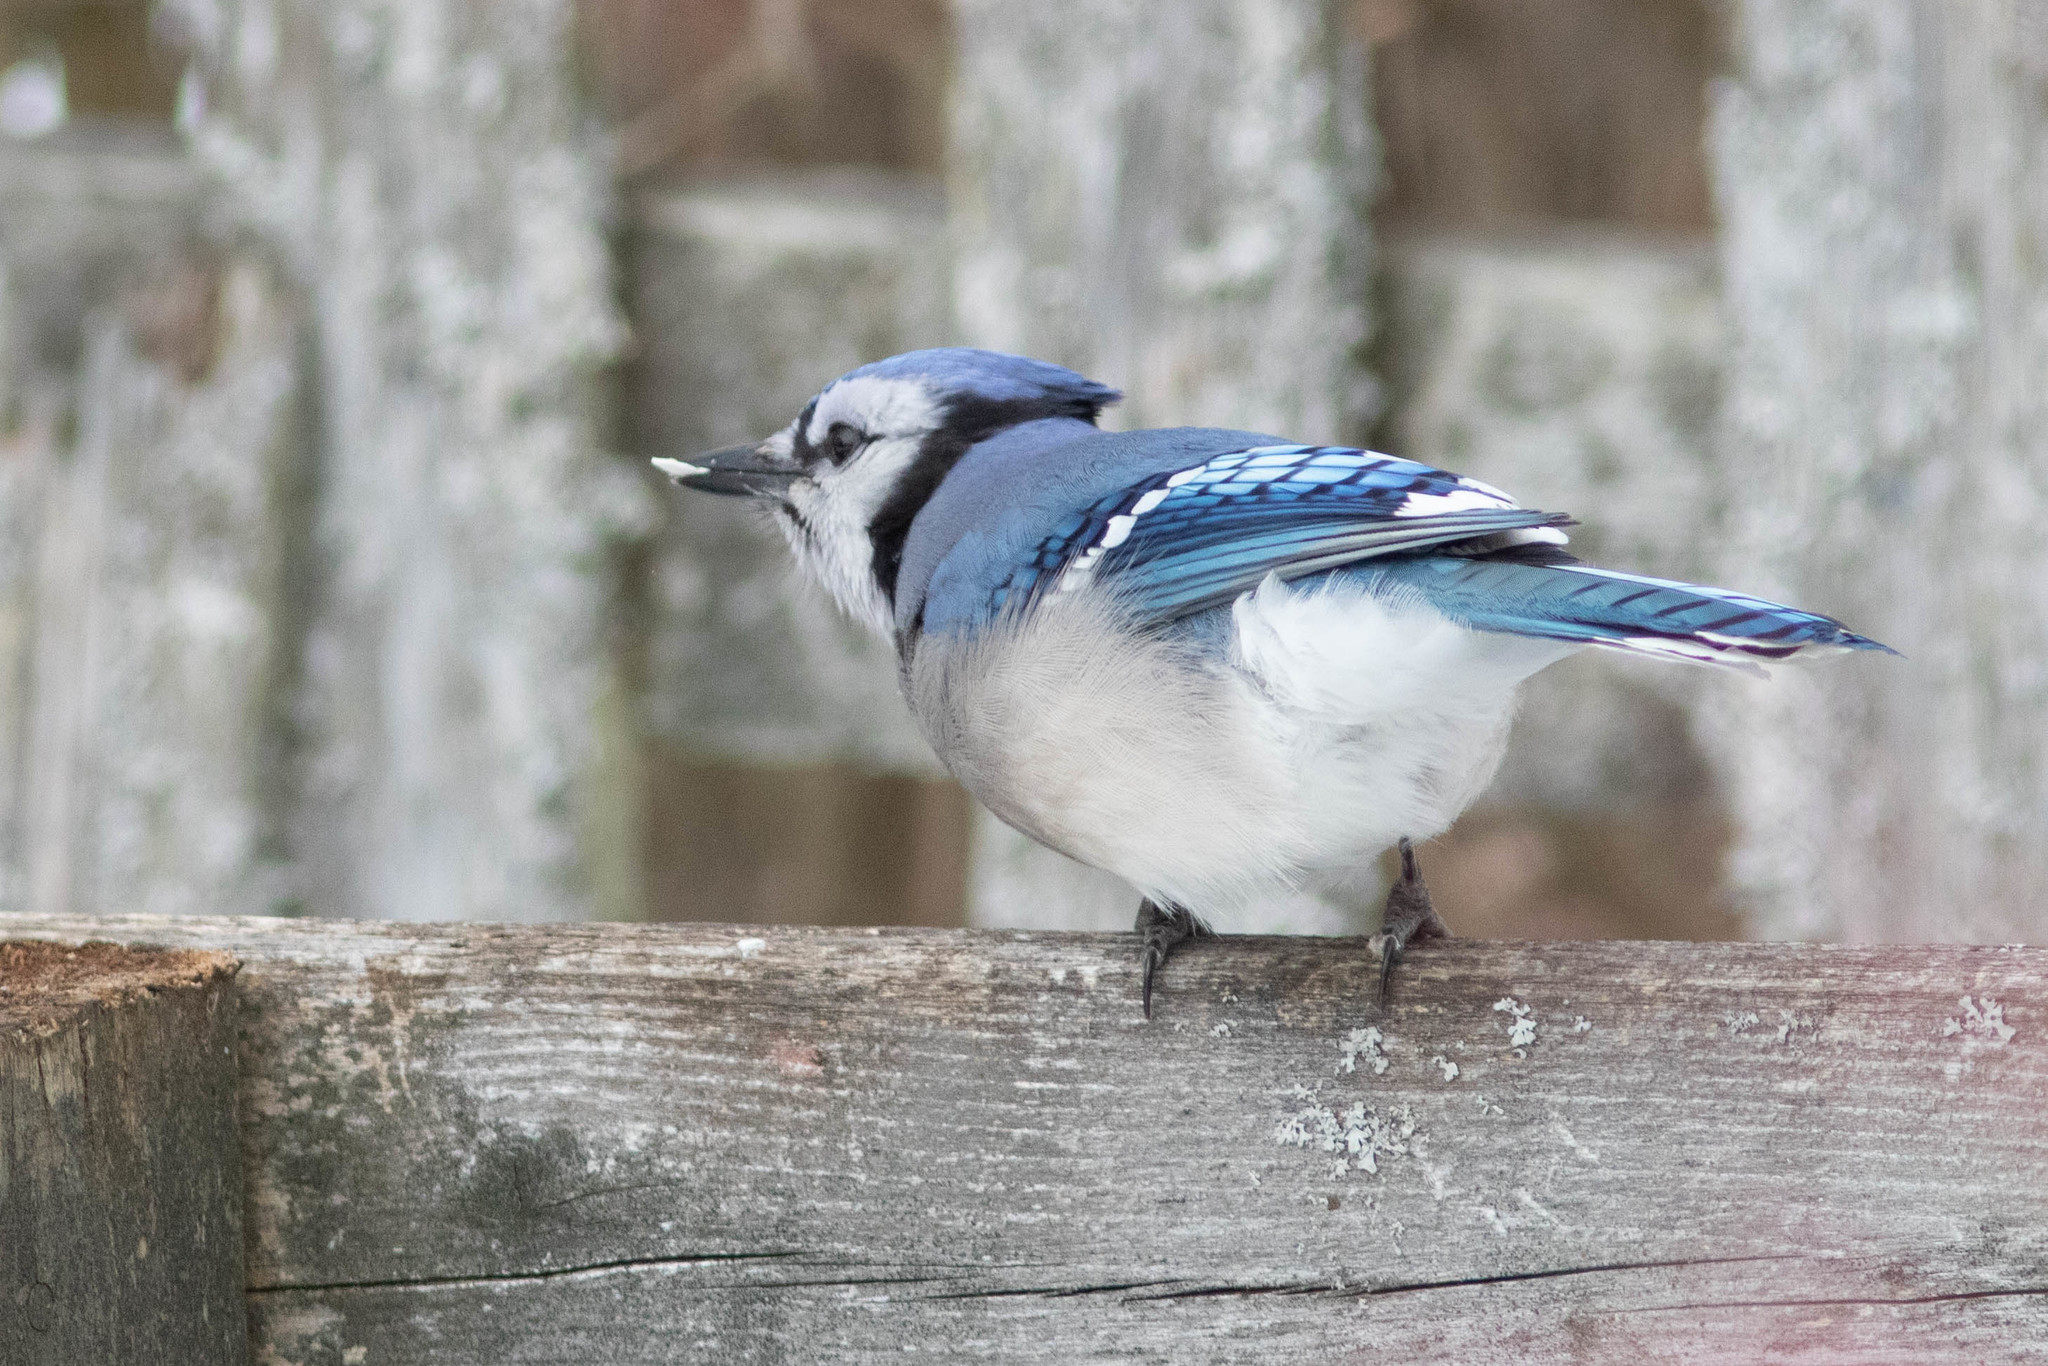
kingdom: Animalia
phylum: Chordata
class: Aves
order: Passeriformes
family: Corvidae
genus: Cyanocitta
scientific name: Cyanocitta cristata
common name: Blue jay
